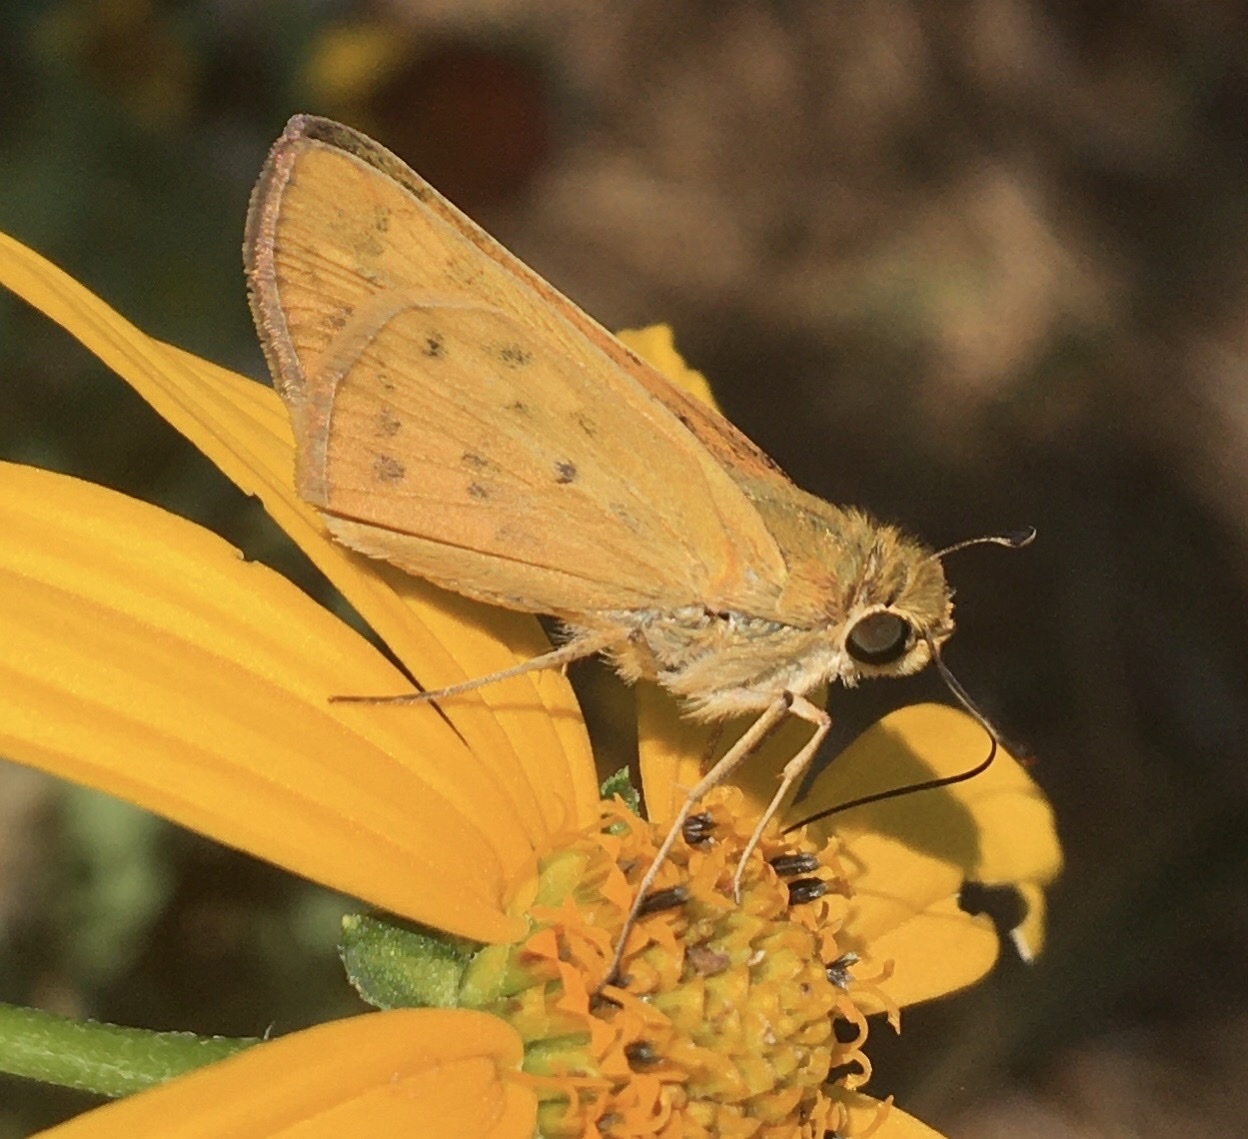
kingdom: Animalia
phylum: Arthropoda
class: Insecta
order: Lepidoptera
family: Hesperiidae
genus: Hylephila
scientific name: Hylephila phyleus
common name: Fiery skipper
